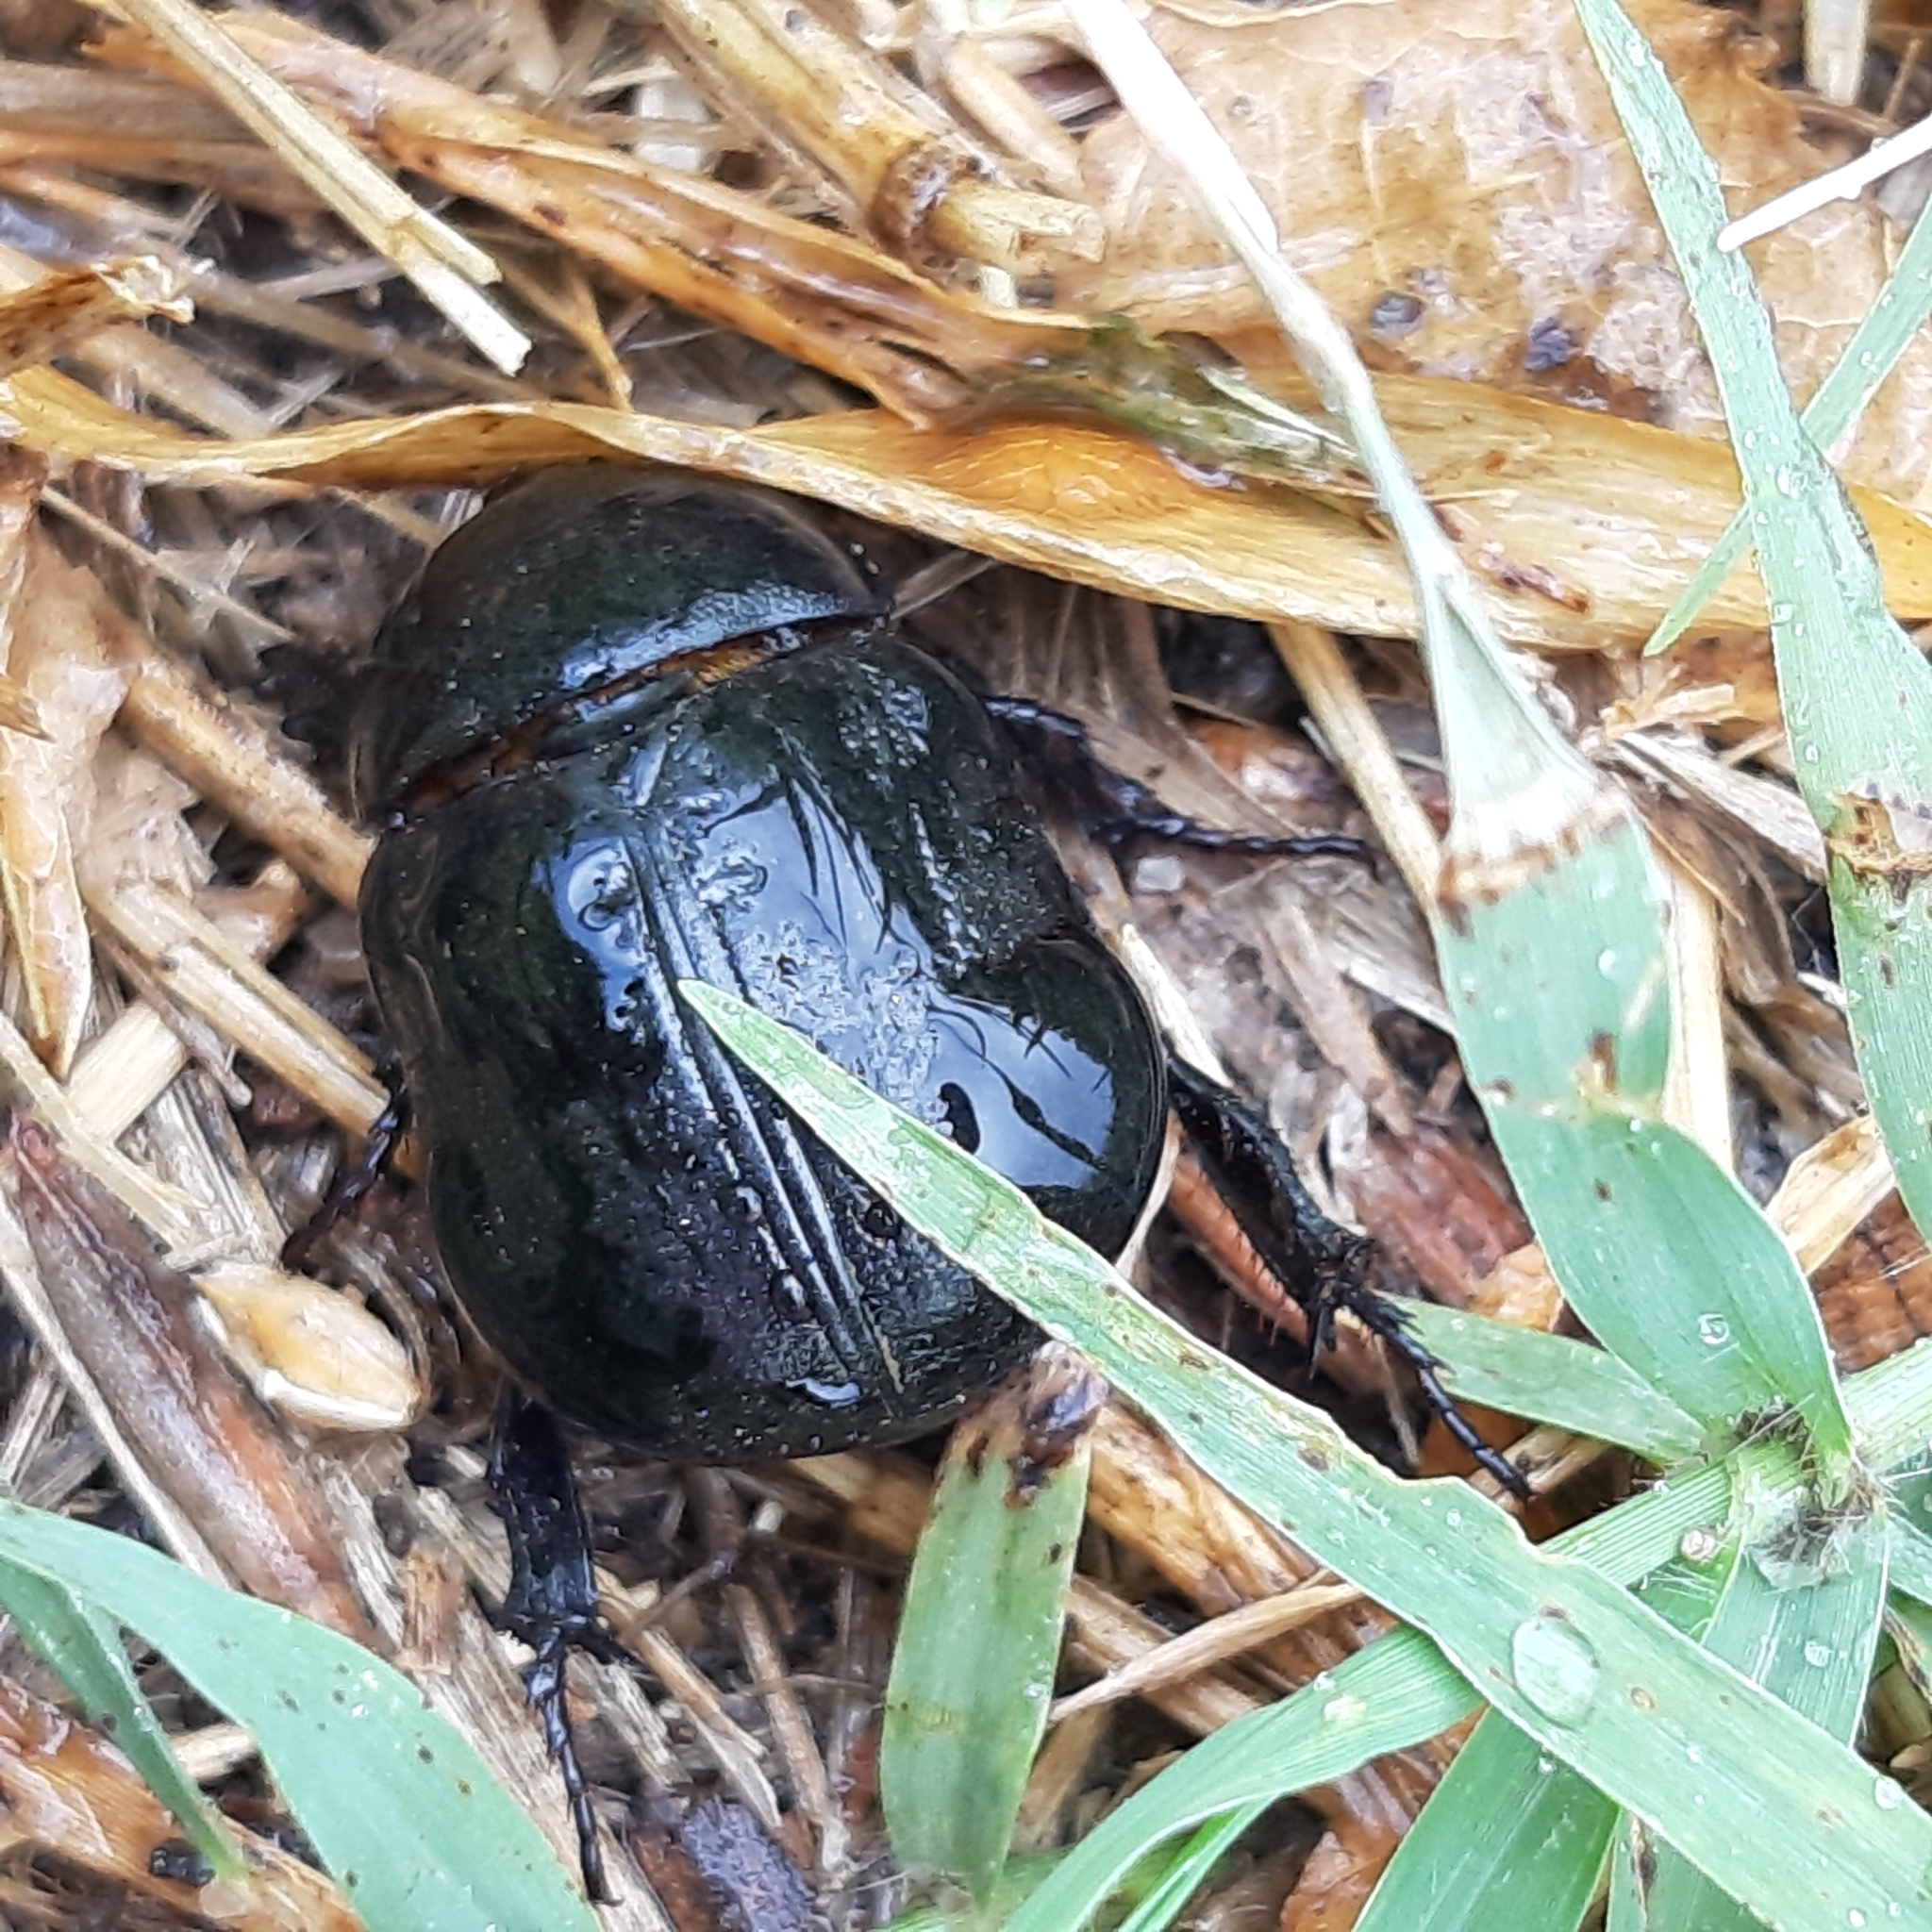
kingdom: Animalia
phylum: Arthropoda
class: Insecta
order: Coleoptera
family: Scarabaeidae
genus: Pentodon
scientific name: Pentodon bidens
